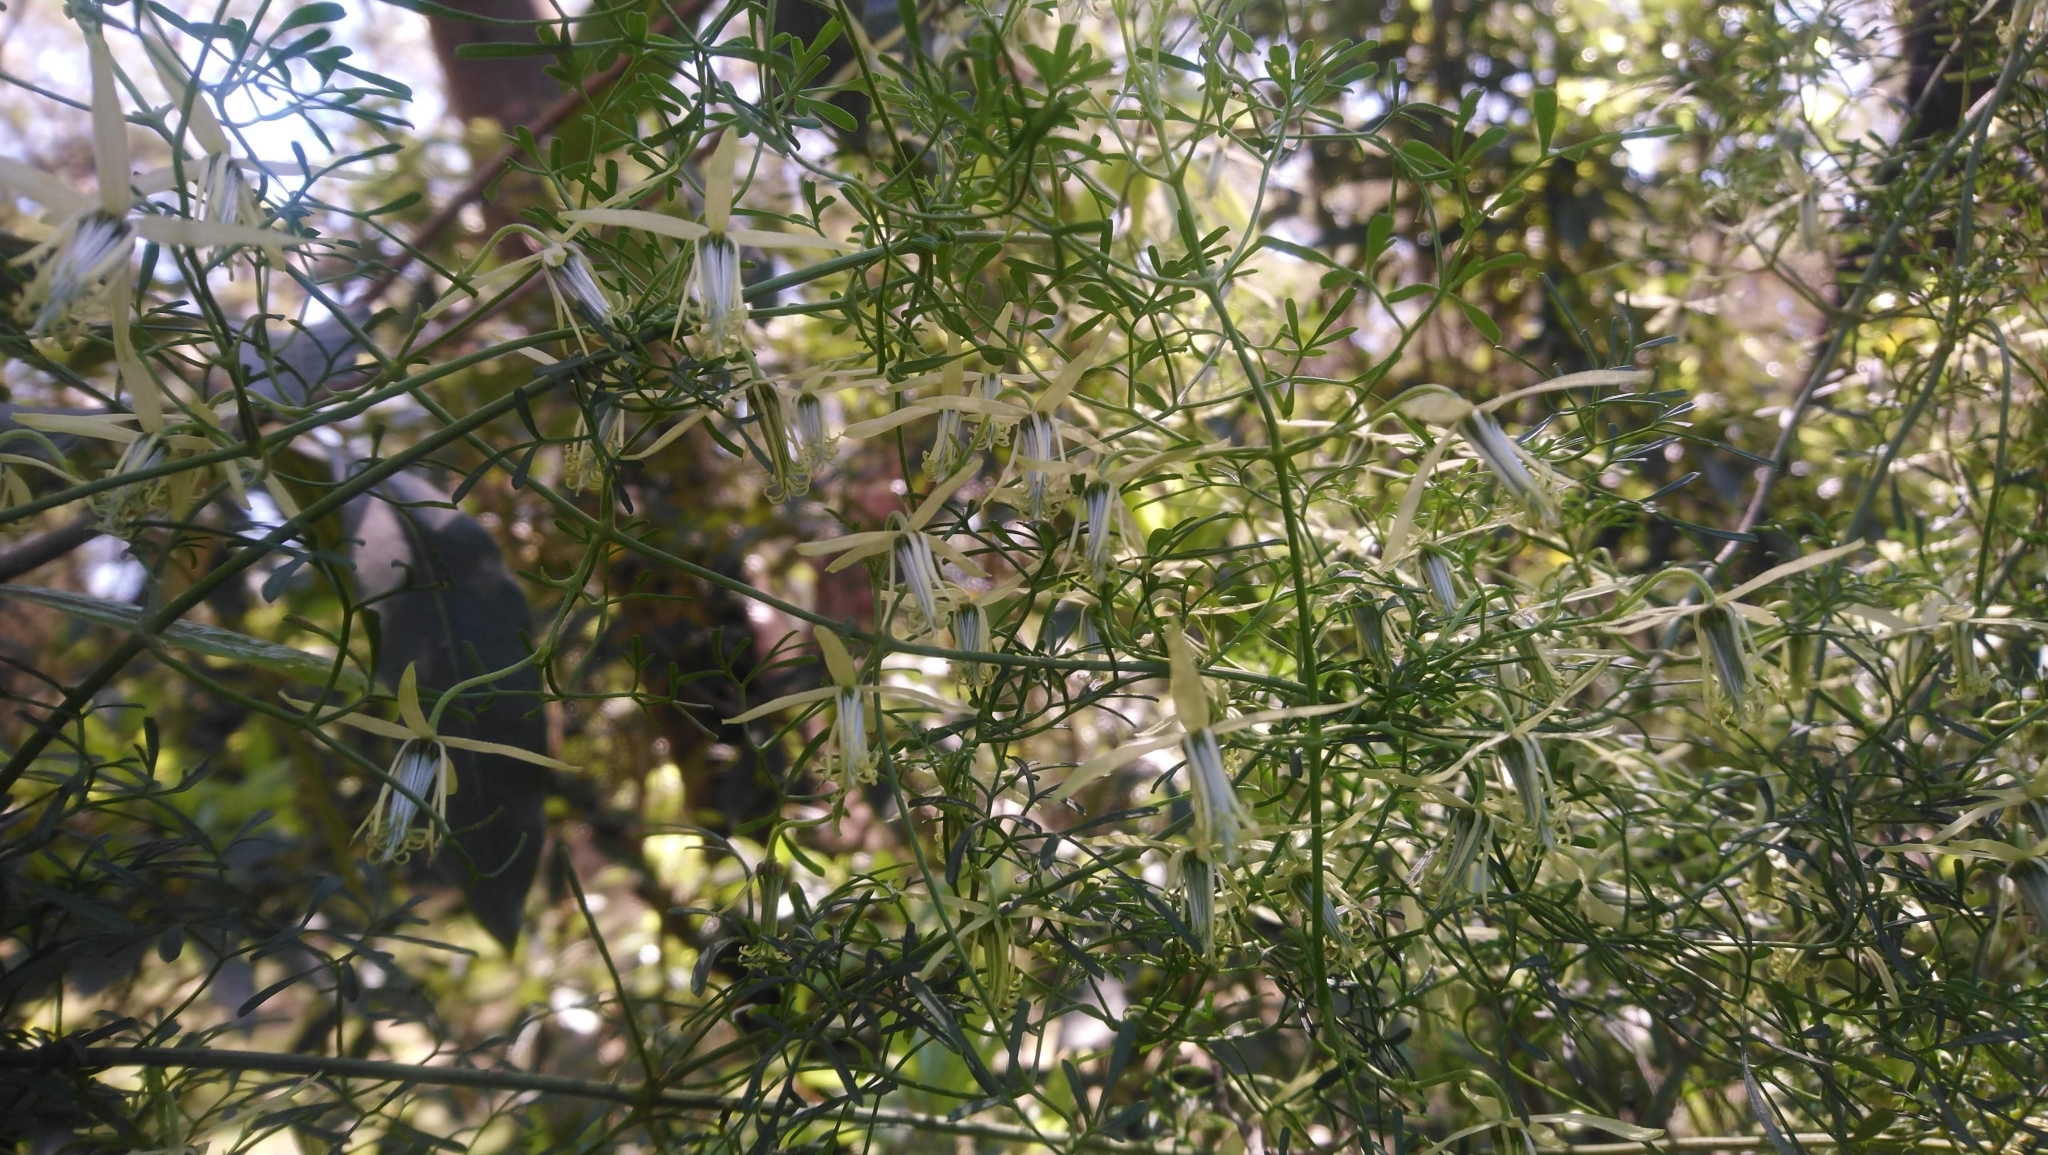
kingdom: Plantae
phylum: Tracheophyta
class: Magnoliopsida
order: Ranunculales
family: Ranunculaceae
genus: Clematis
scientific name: Clematis leptophylla
